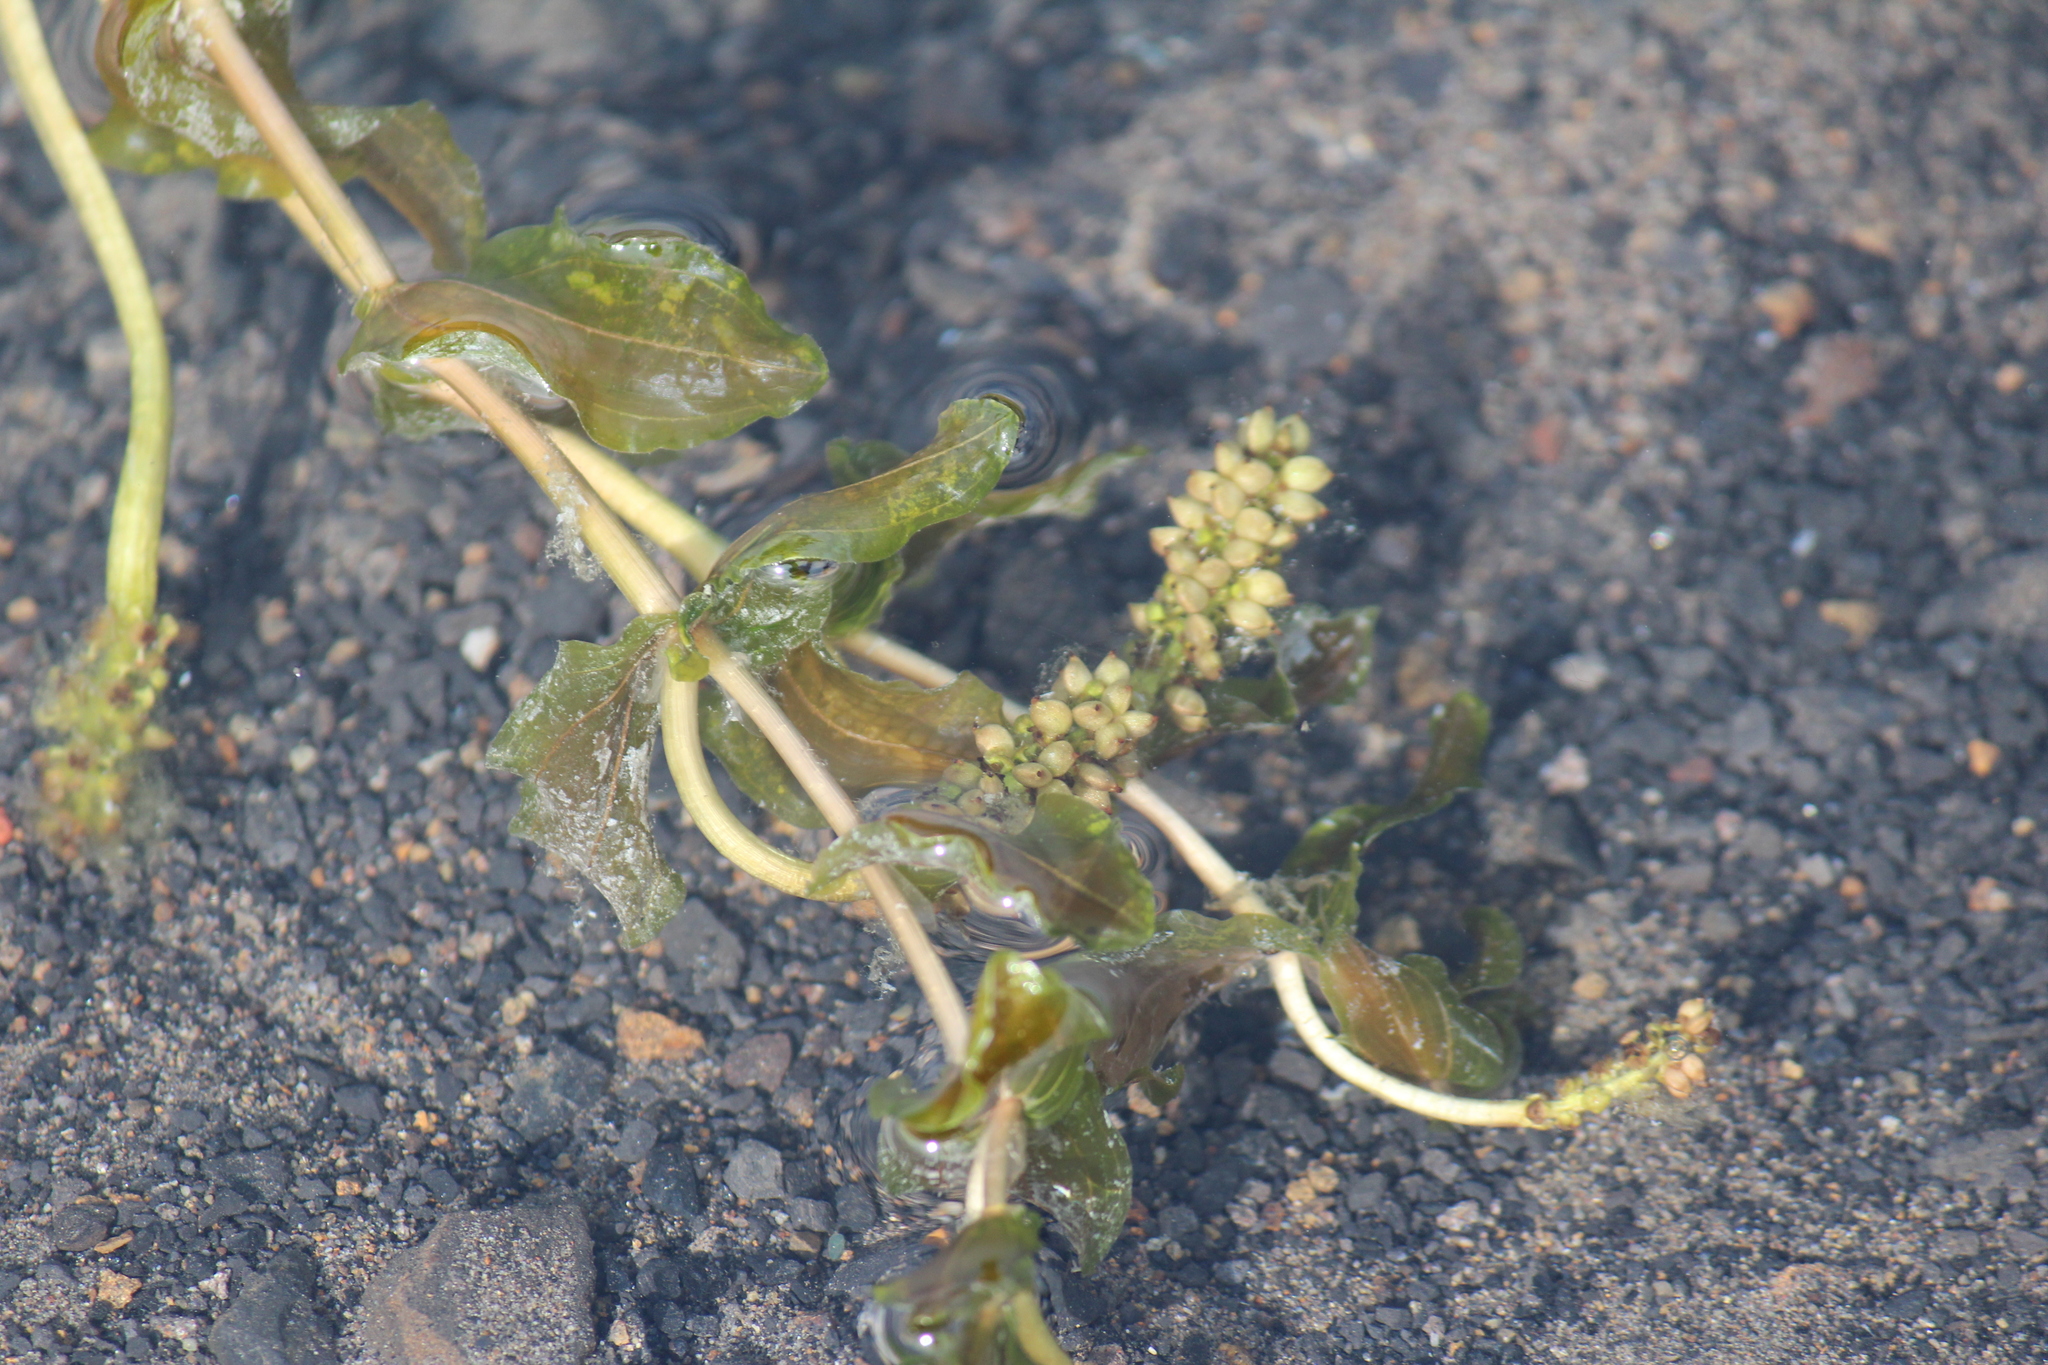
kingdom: Plantae
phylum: Tracheophyta
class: Liliopsida
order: Alismatales
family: Potamogetonaceae
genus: Potamogeton
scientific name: Potamogeton perfoliatus
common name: Perfoliate pondweed
